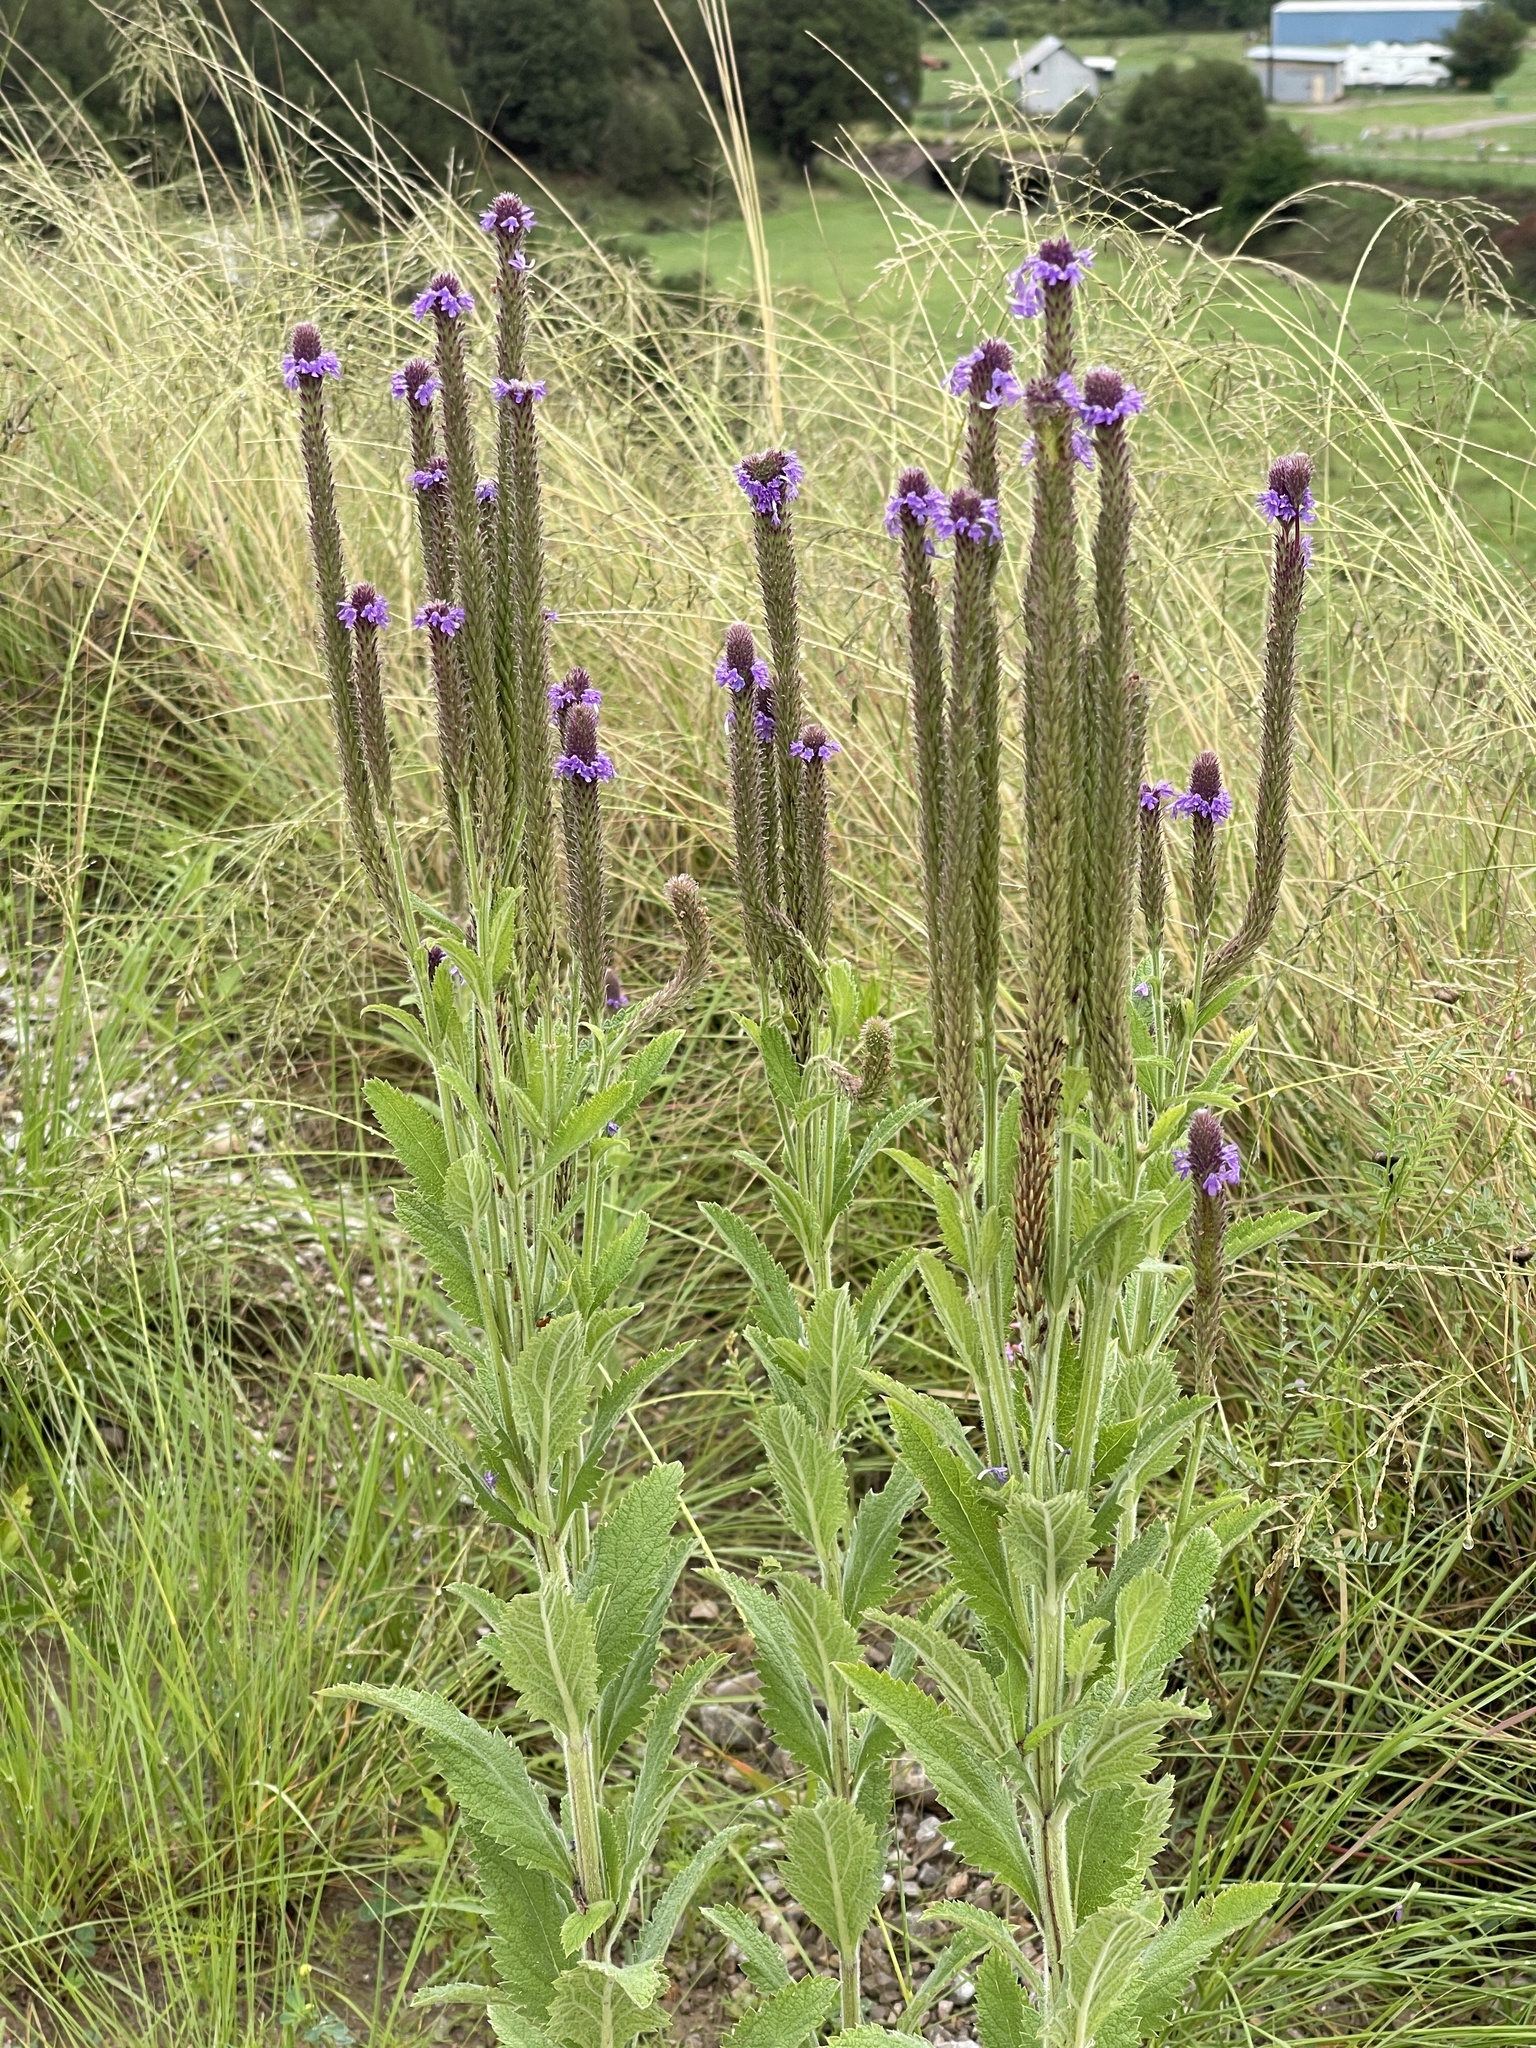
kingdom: Plantae
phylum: Tracheophyta
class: Magnoliopsida
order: Lamiales
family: Verbenaceae
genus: Verbena
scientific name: Verbena macdougalii
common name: New mexico vervain
